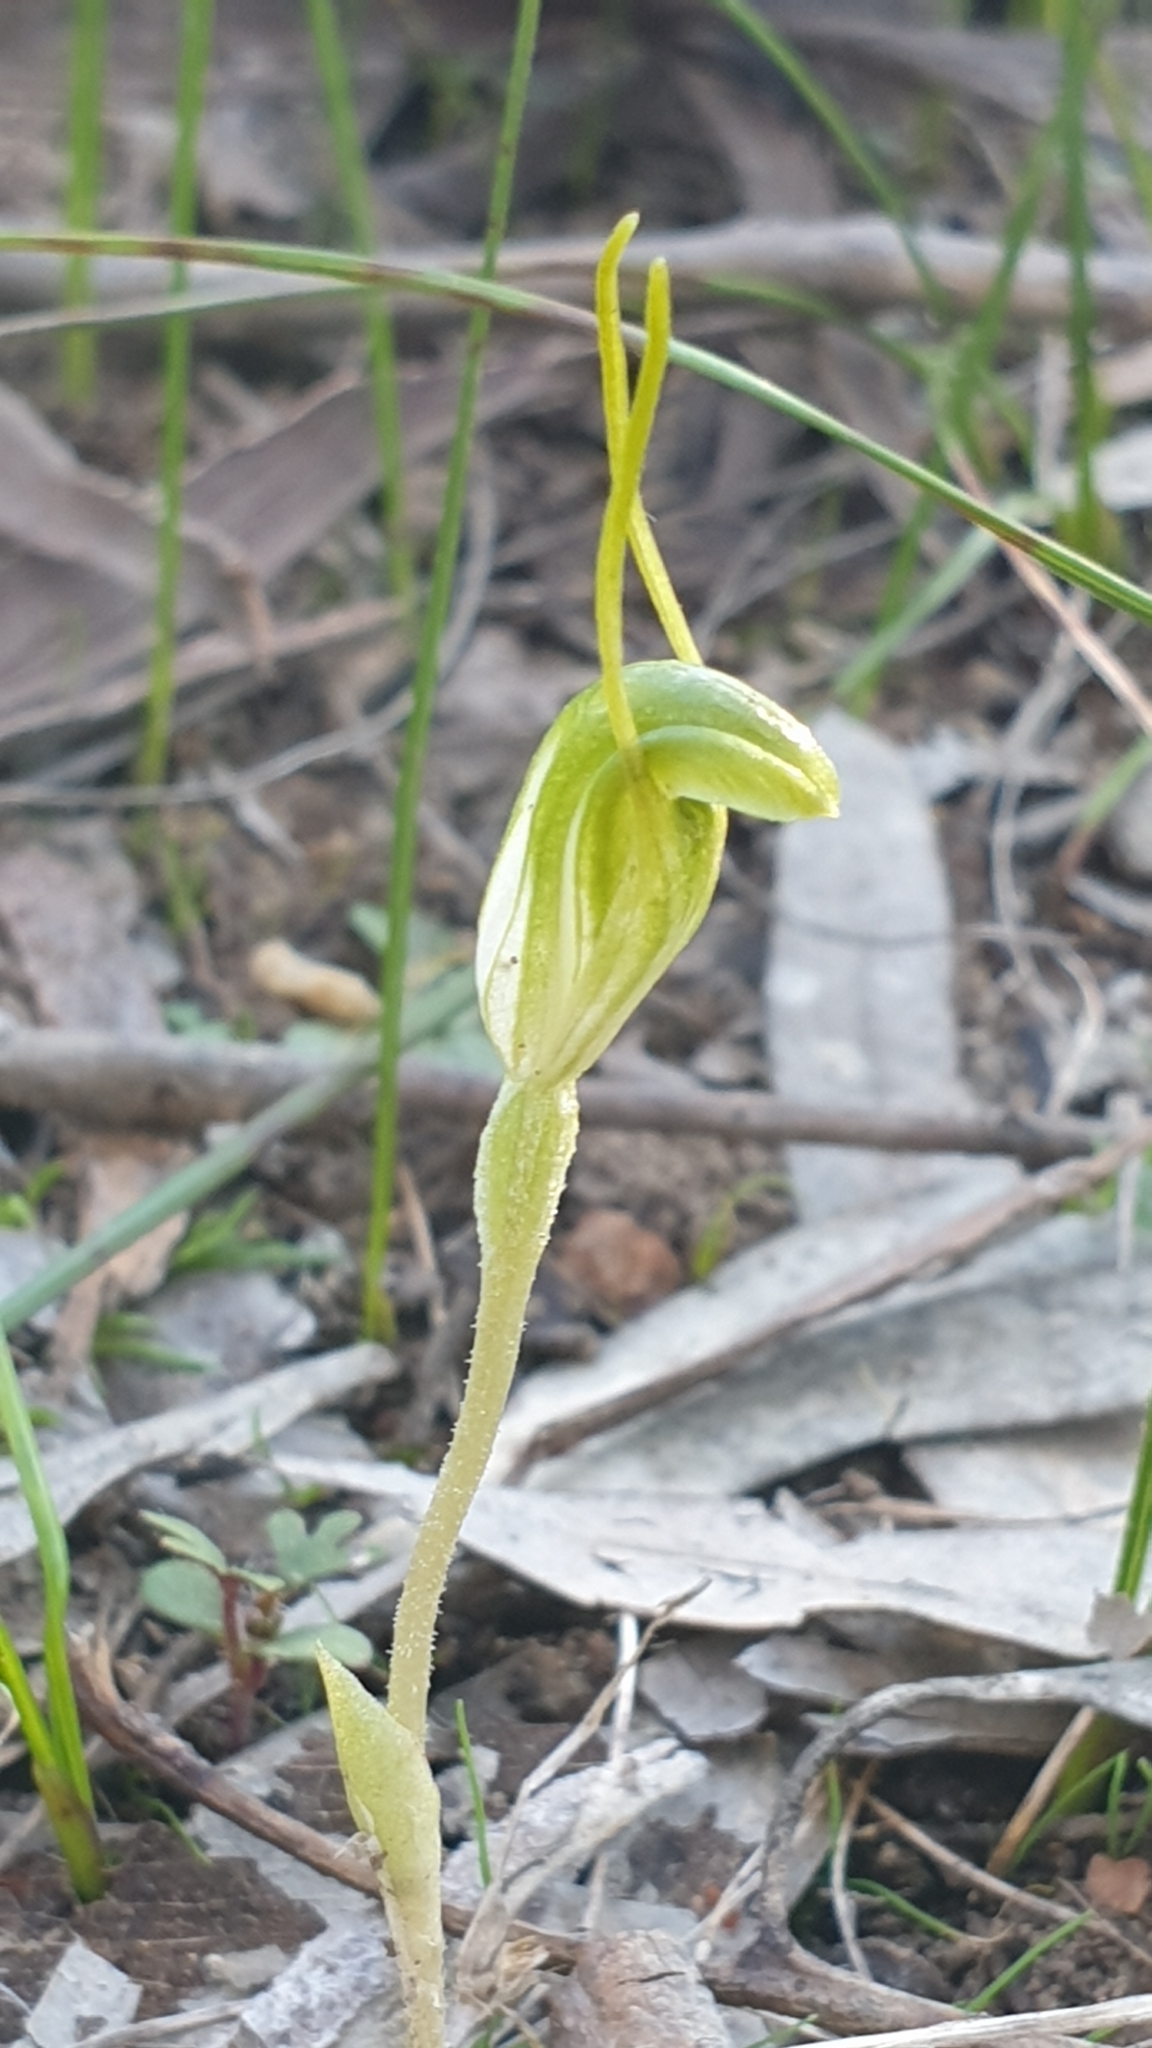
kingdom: Plantae
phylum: Tracheophyta
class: Liliopsida
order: Asparagales
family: Orchidaceae
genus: Pterostylis
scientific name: Pterostylis nana
